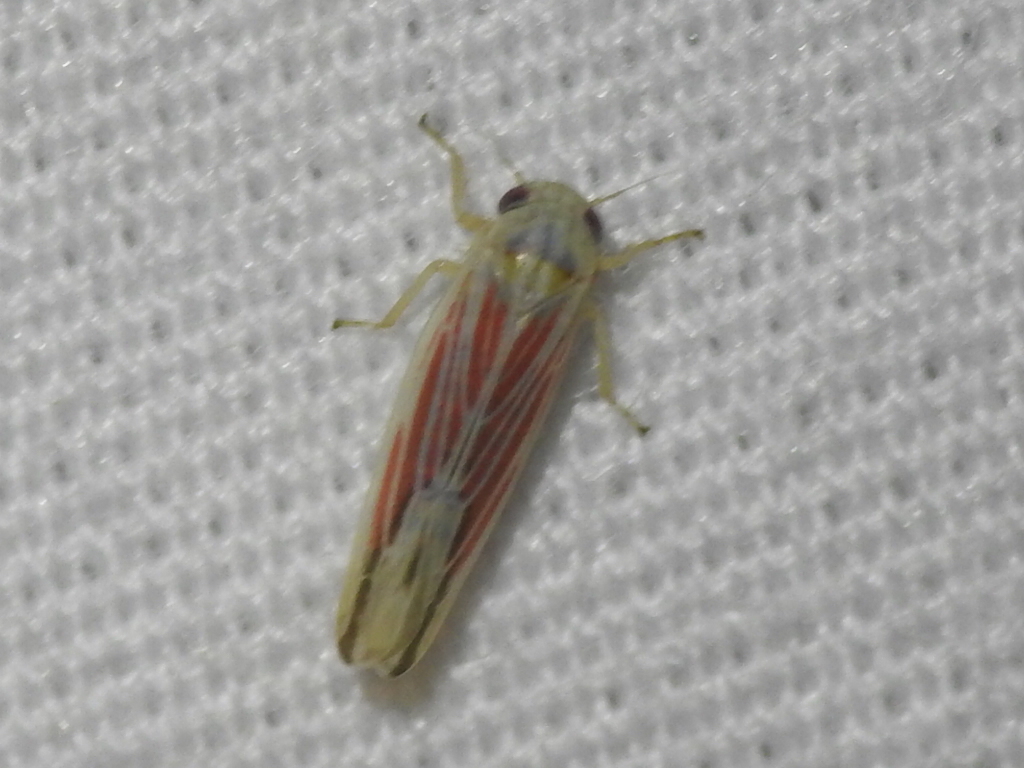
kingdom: Animalia
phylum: Arthropoda
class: Insecta
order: Hemiptera
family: Cicadellidae
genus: Balclutha
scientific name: Balclutha rubrostriata
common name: Red-streaked leafhopper
